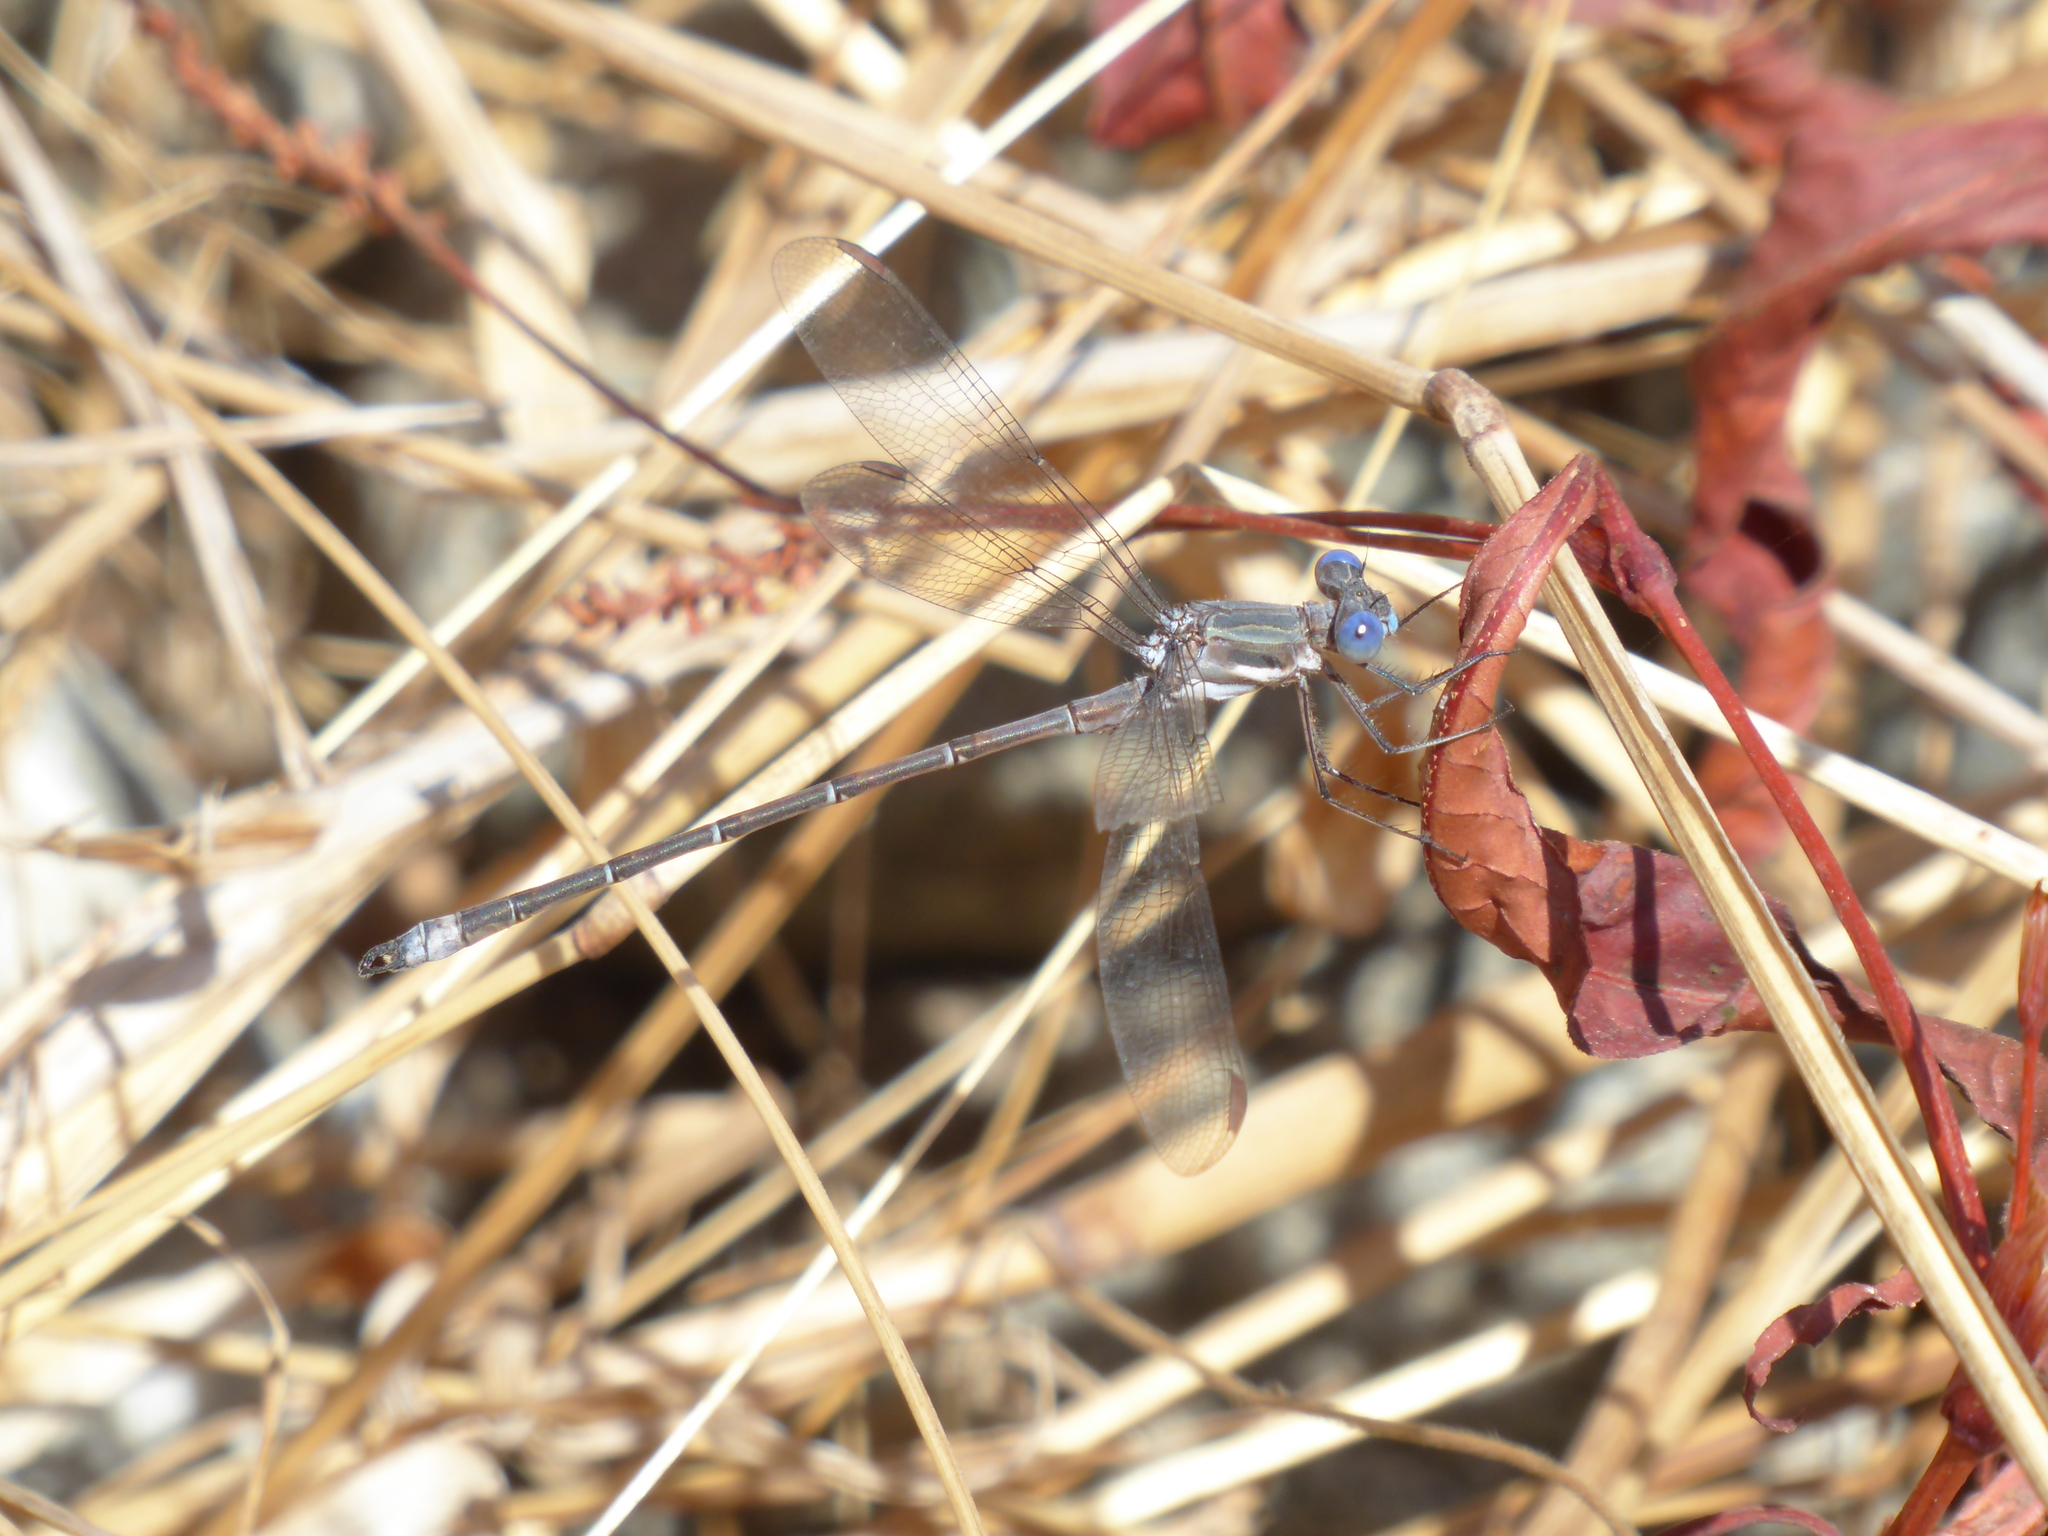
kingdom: Animalia
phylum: Arthropoda
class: Insecta
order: Odonata
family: Lestidae
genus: Archilestes
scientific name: Archilestes californicus
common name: California spreadwing
